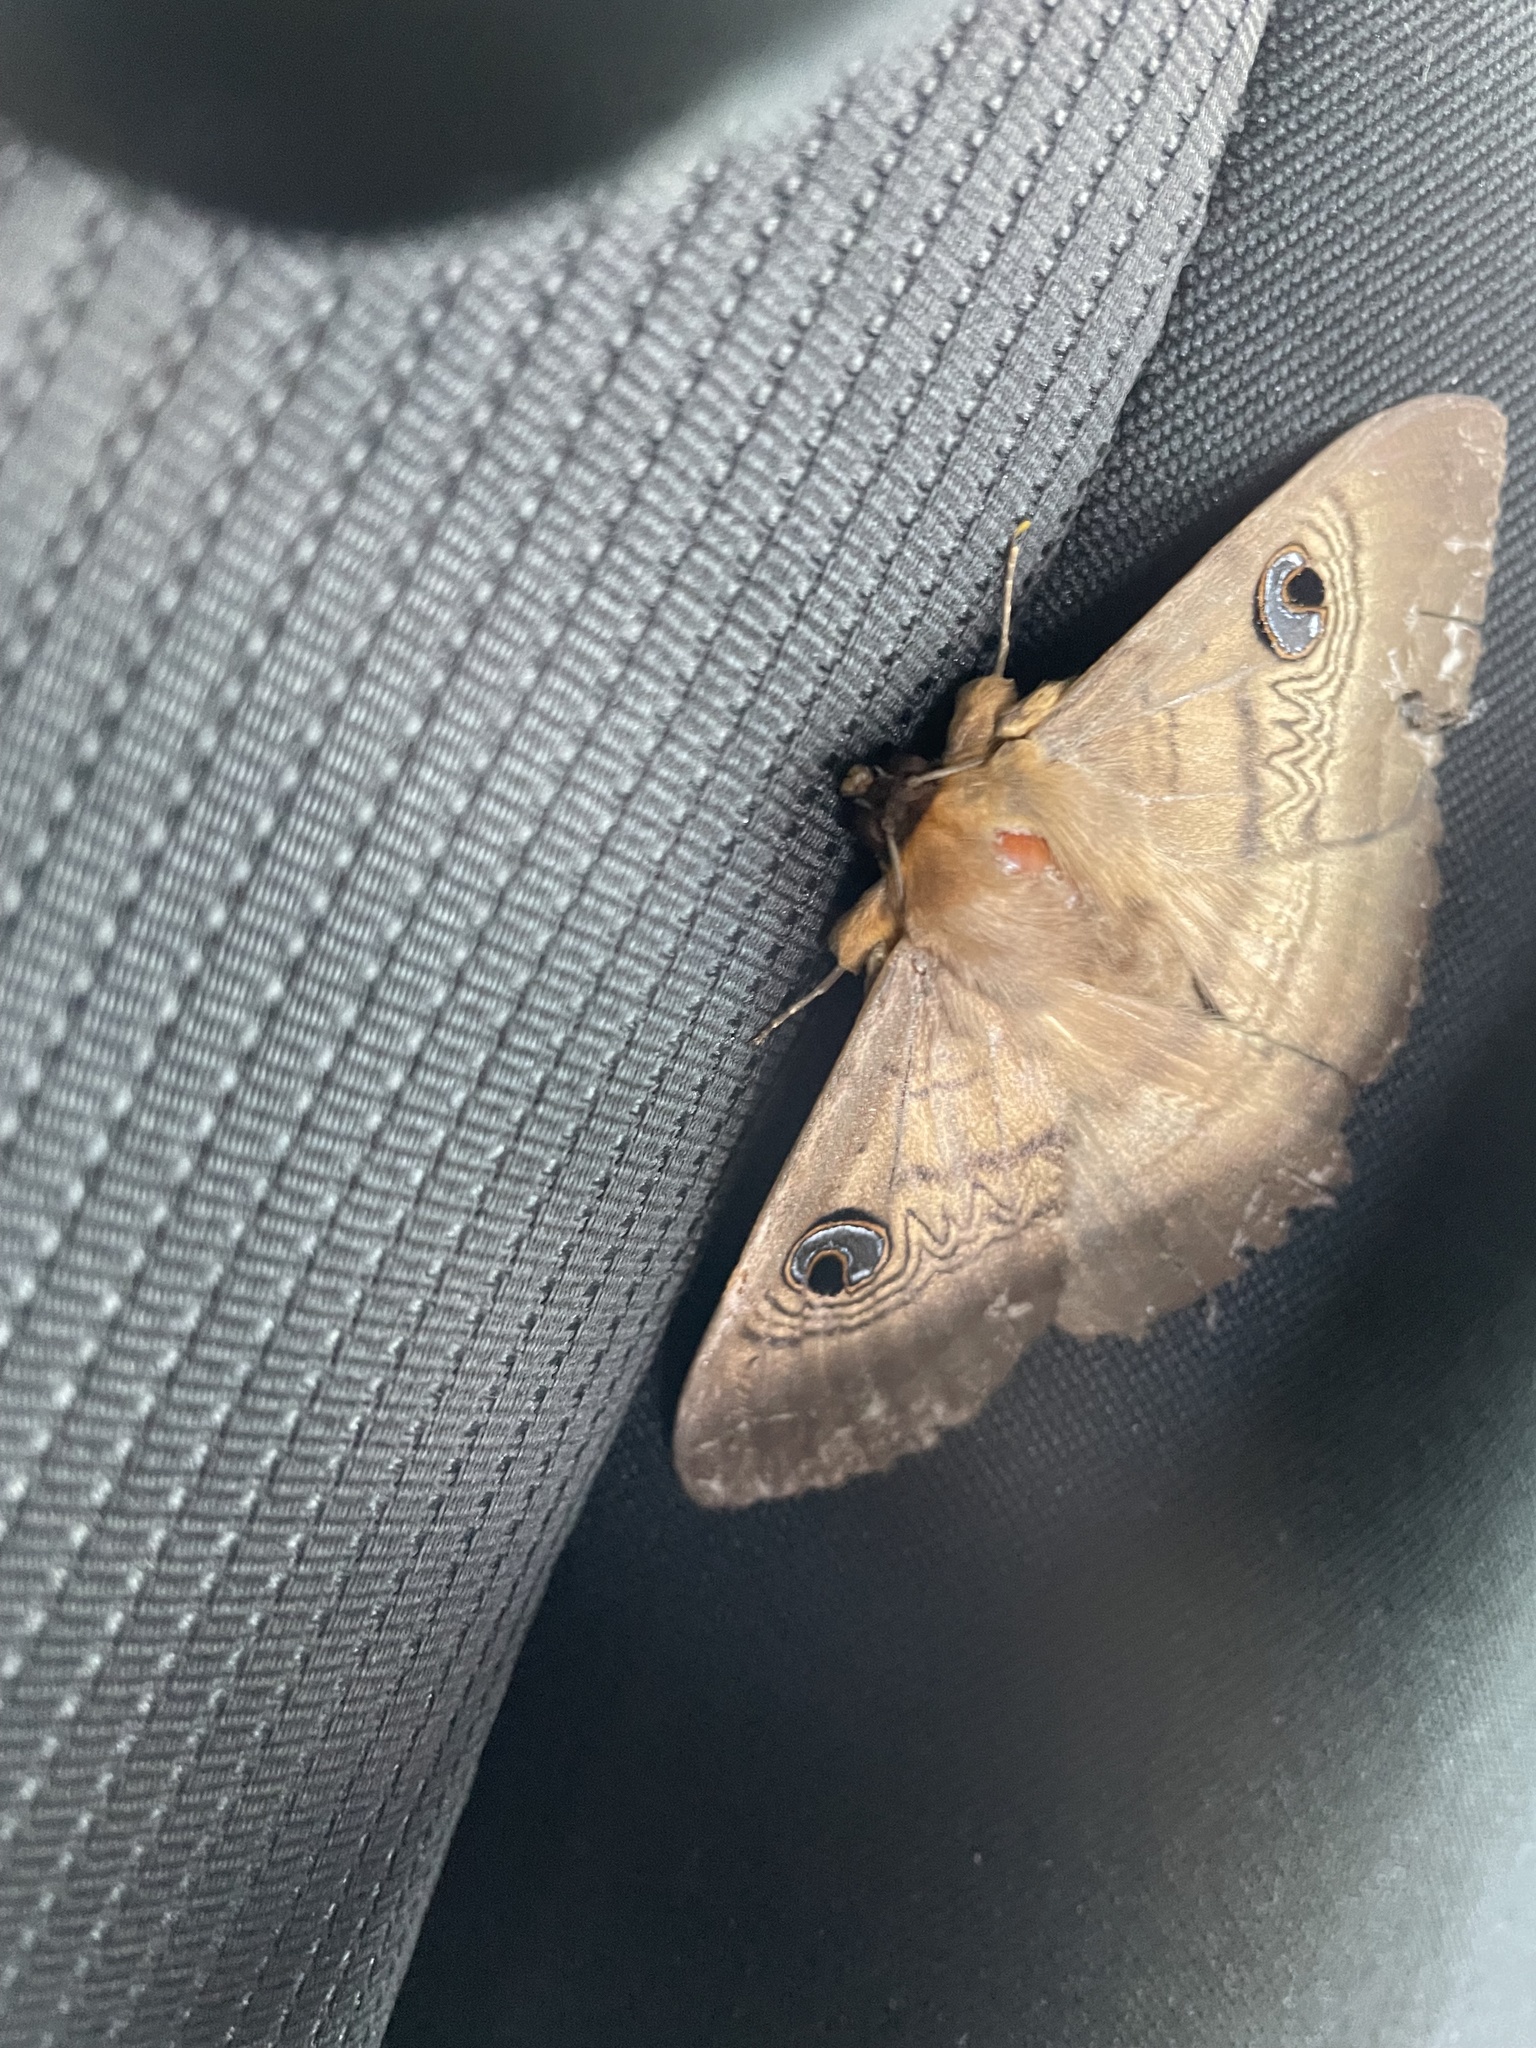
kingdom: Animalia
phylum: Arthropoda
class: Insecta
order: Lepidoptera
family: Erebidae
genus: Dasypodia
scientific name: Dasypodia selenophora
